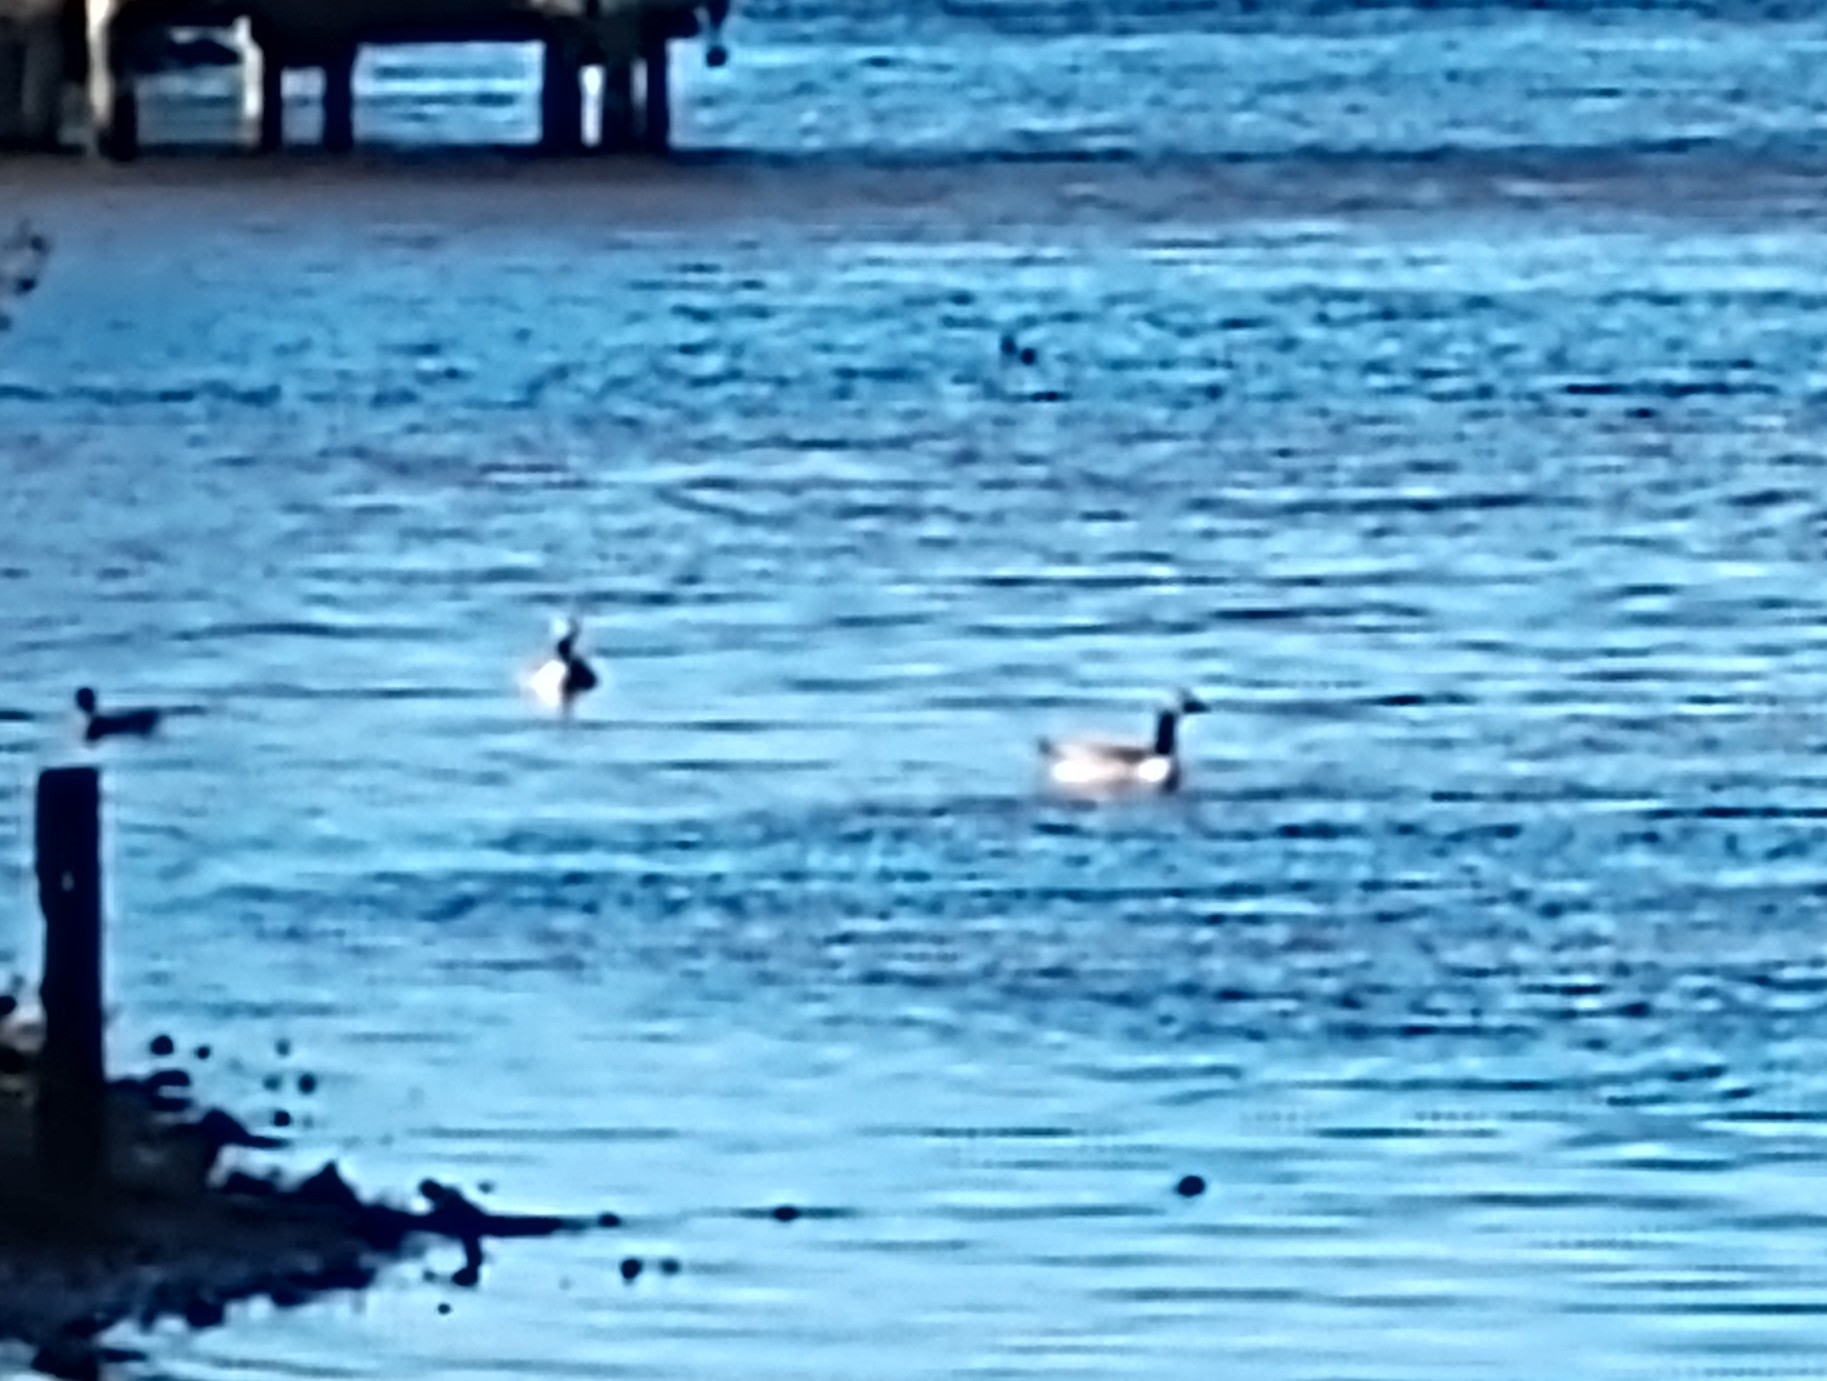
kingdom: Animalia
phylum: Chordata
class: Aves
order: Anseriformes
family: Anatidae
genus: Branta
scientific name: Branta canadensis
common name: Canada goose
